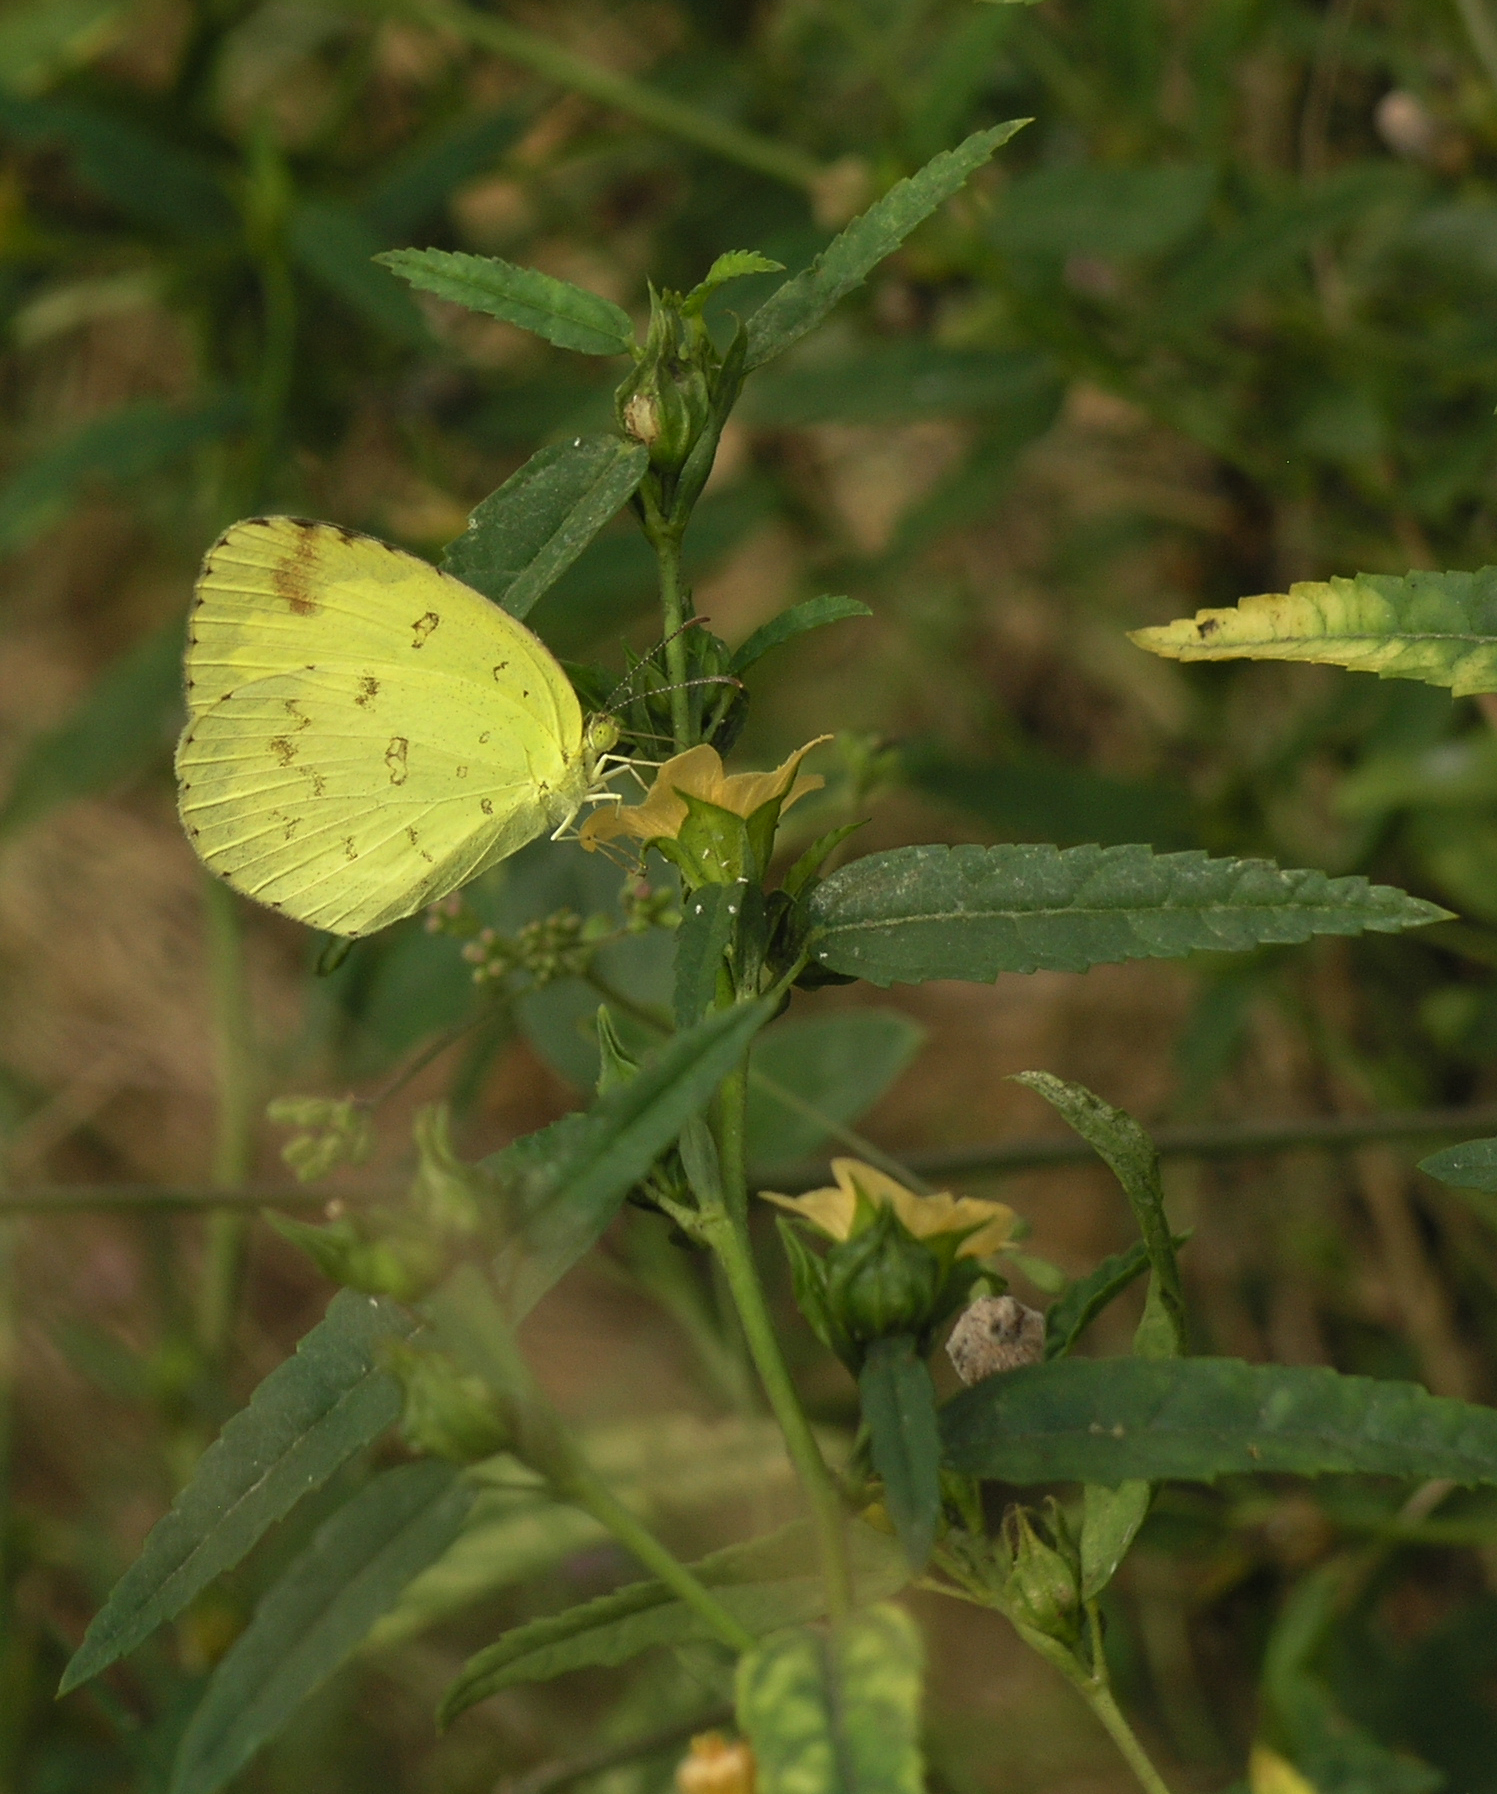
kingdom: Animalia
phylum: Arthropoda
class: Insecta
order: Lepidoptera
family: Pieridae
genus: Eurema
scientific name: Eurema hecabe
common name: Pale grass yellow
